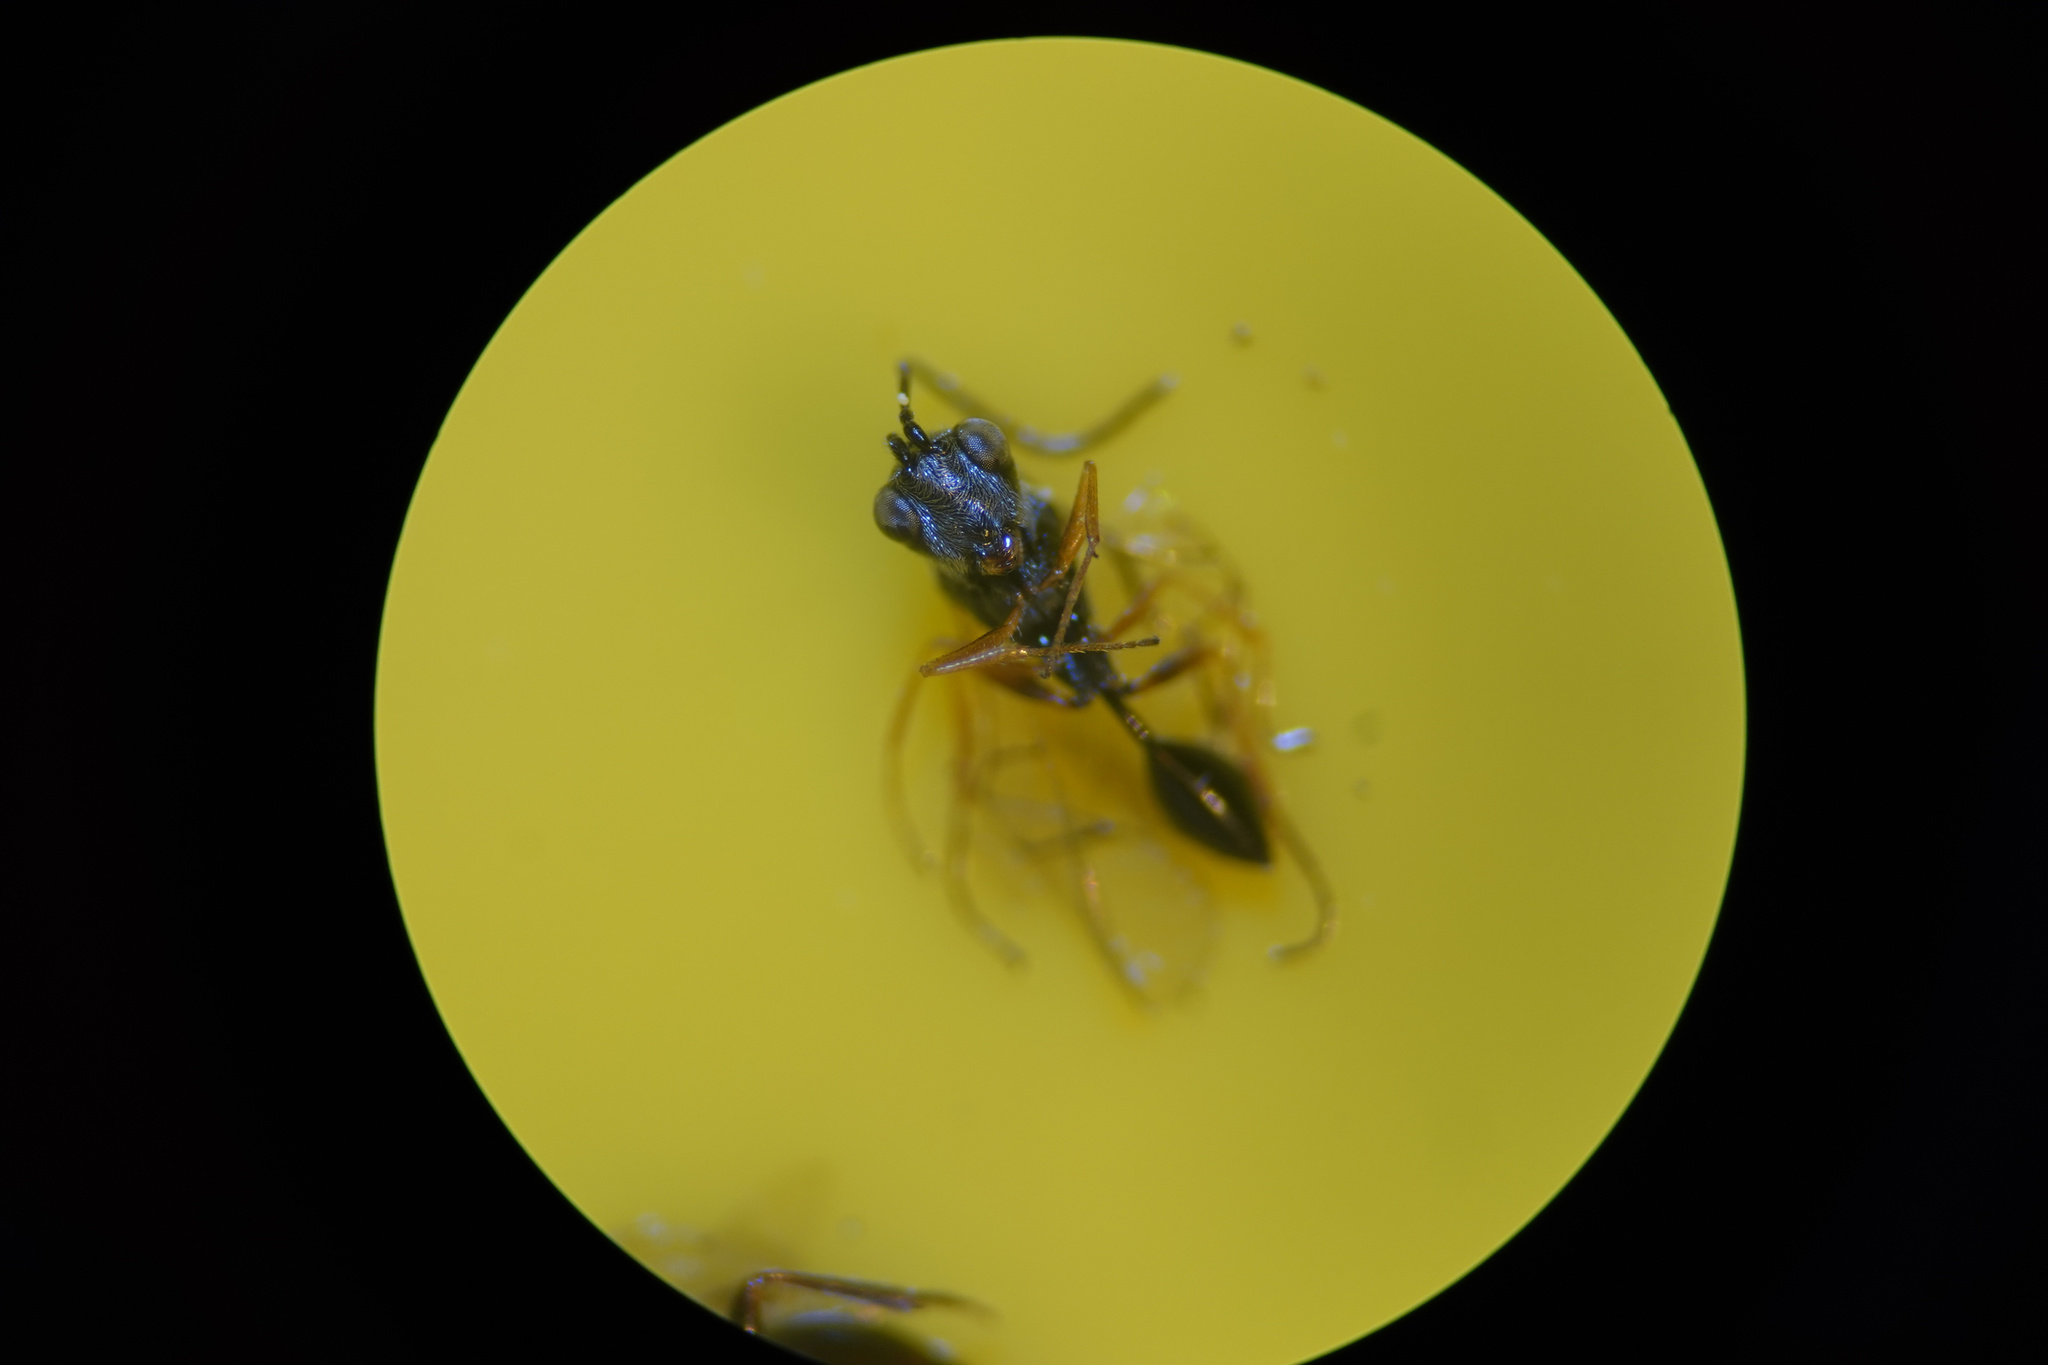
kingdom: Animalia
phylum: Arthropoda
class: Insecta
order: Hymenoptera
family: Figitidae
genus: Anacharis
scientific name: Anacharis zealandica
